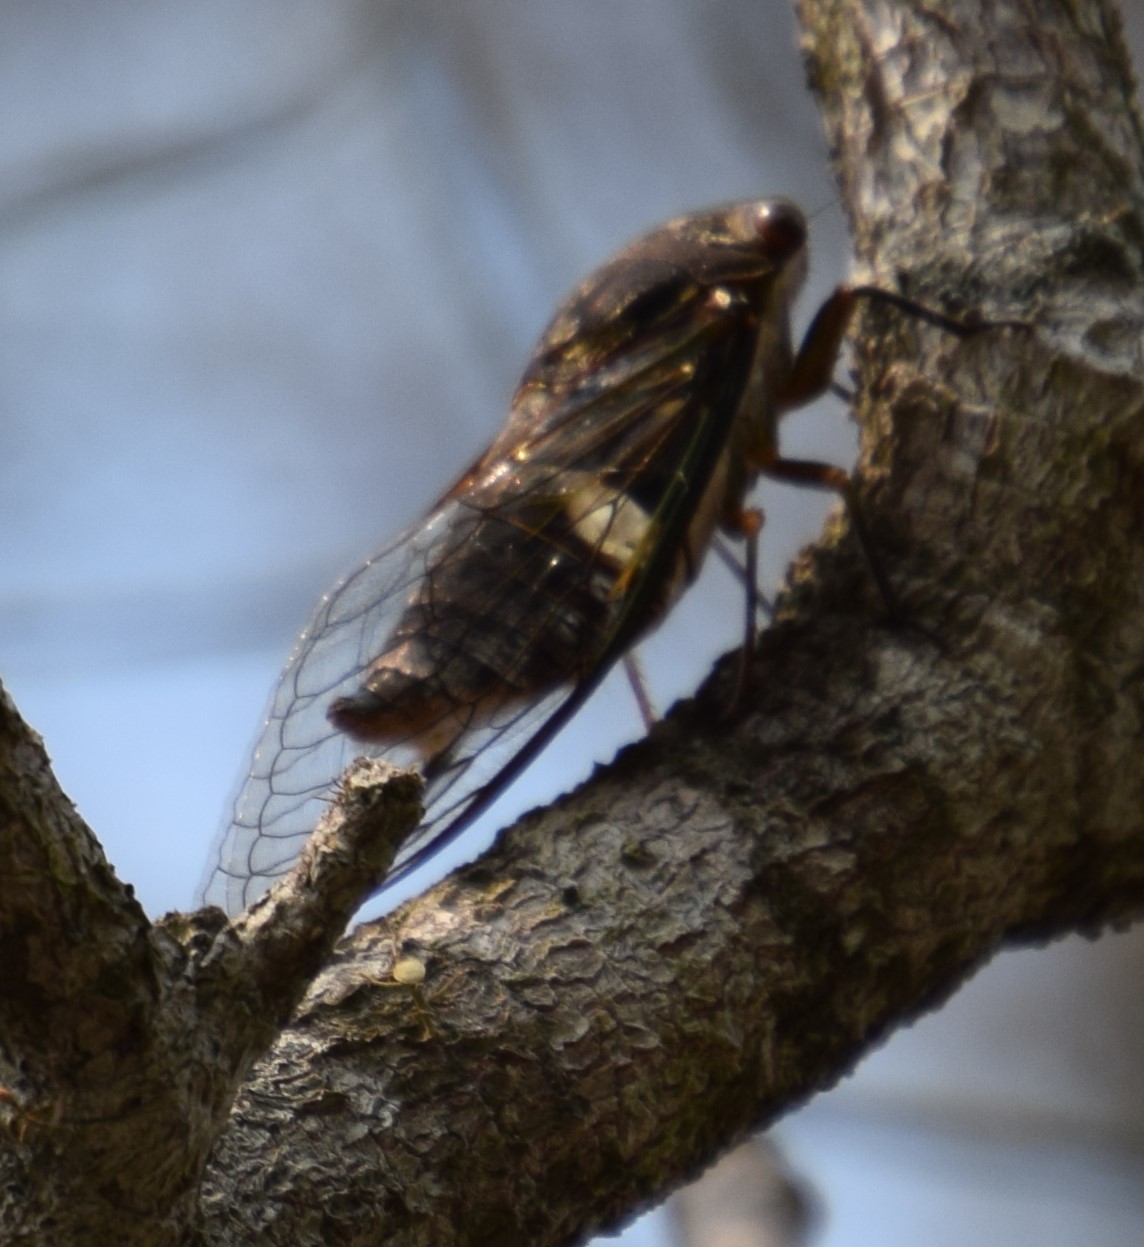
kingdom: Animalia
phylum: Arthropoda
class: Insecta
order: Hemiptera
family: Cicadidae
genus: Psaltoda
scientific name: Psaltoda plaga
